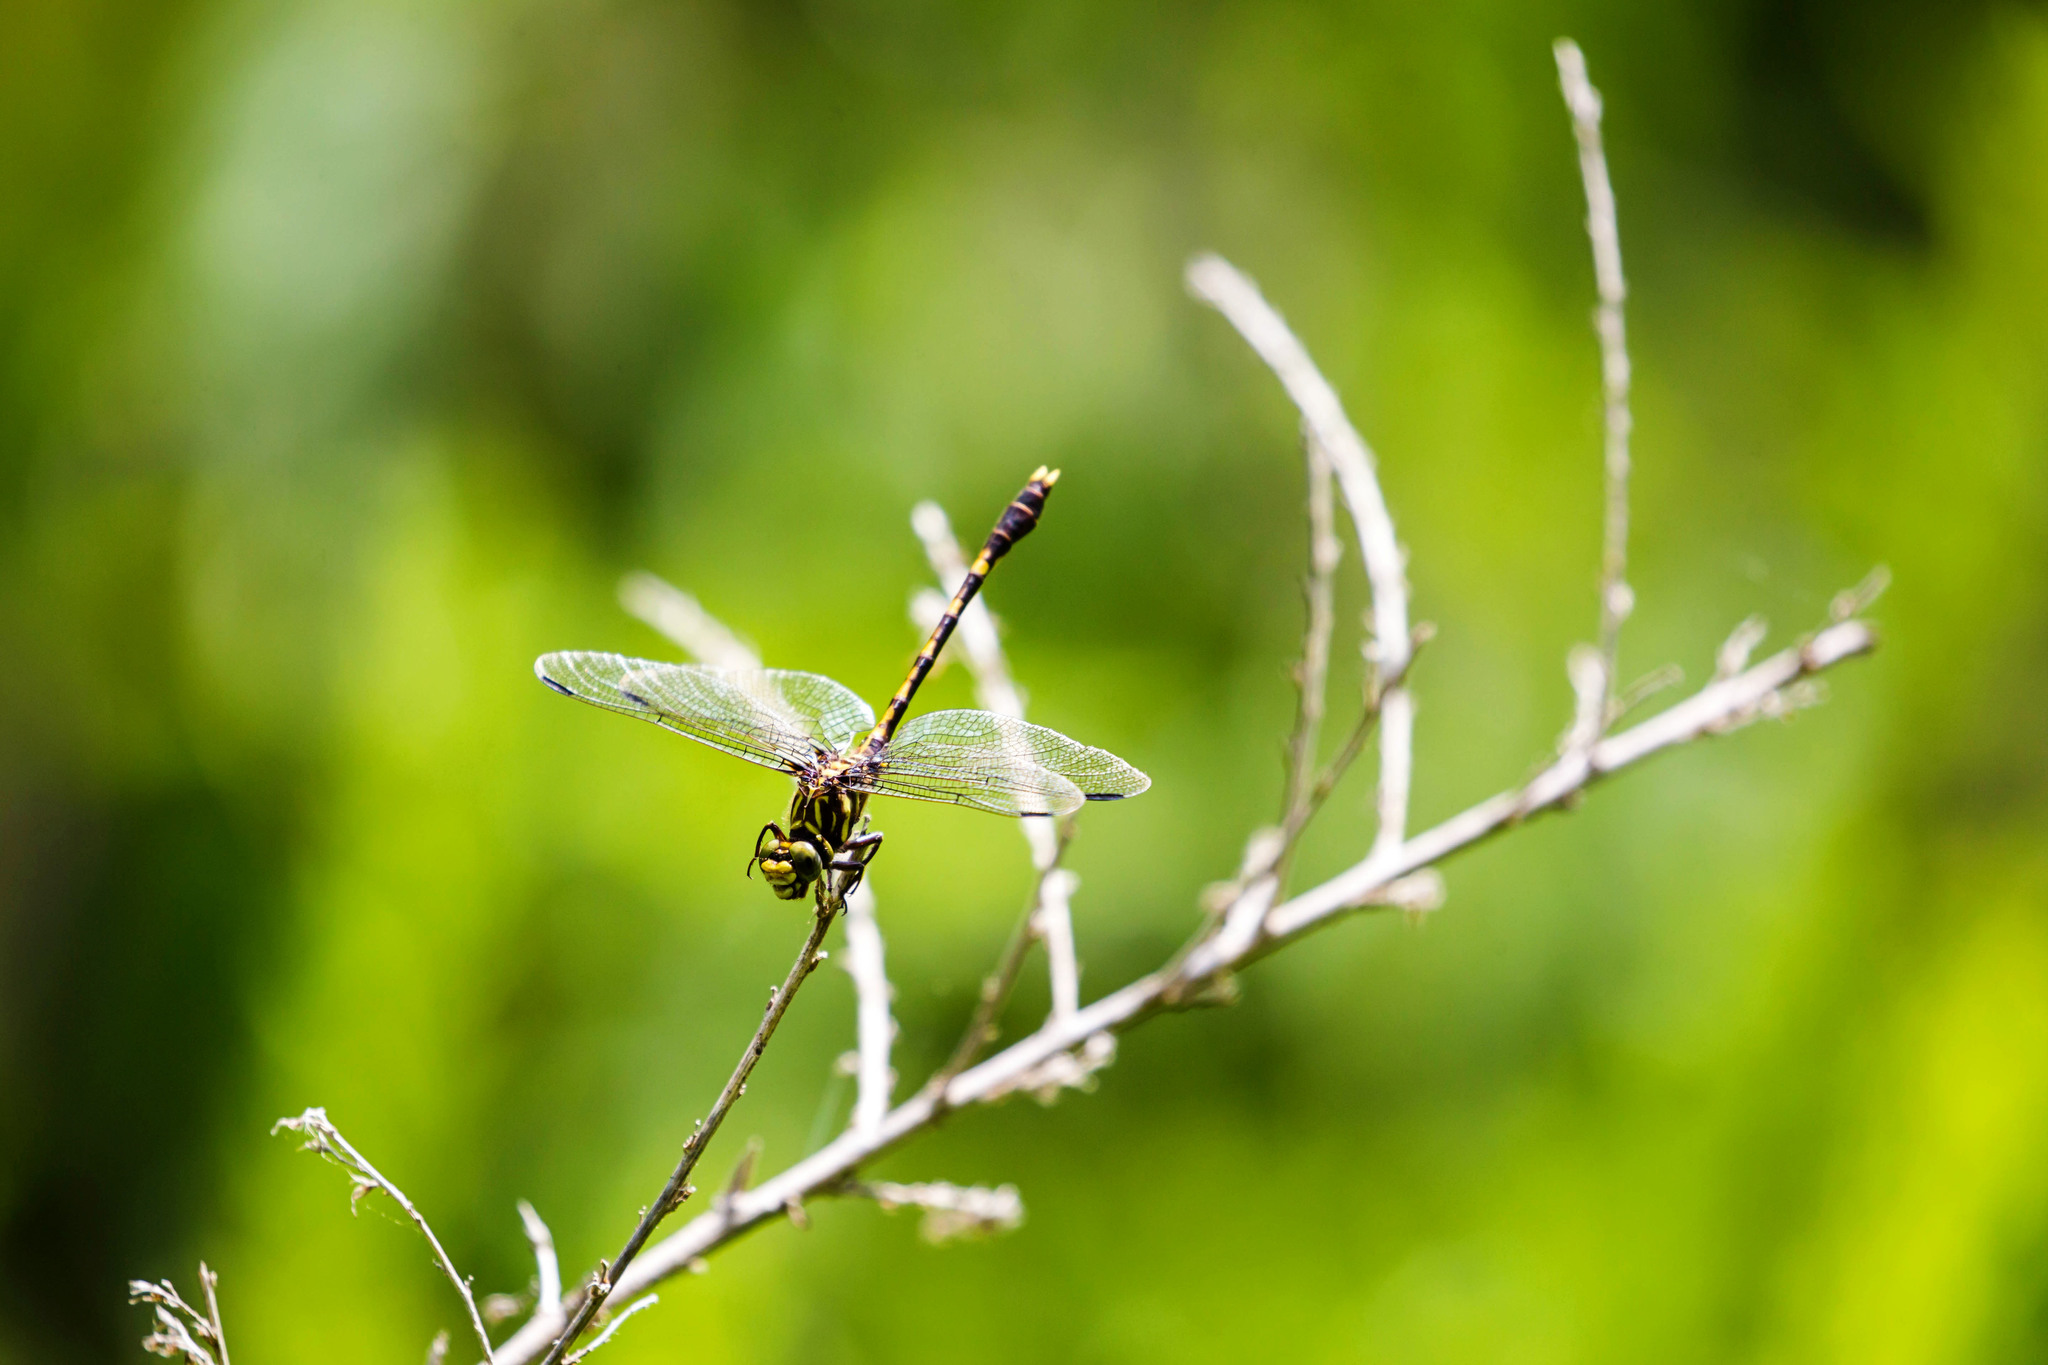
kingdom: Animalia
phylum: Arthropoda
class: Insecta
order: Odonata
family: Gomphidae
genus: Progomphus
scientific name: Progomphus obscurus
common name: Common sanddragon
